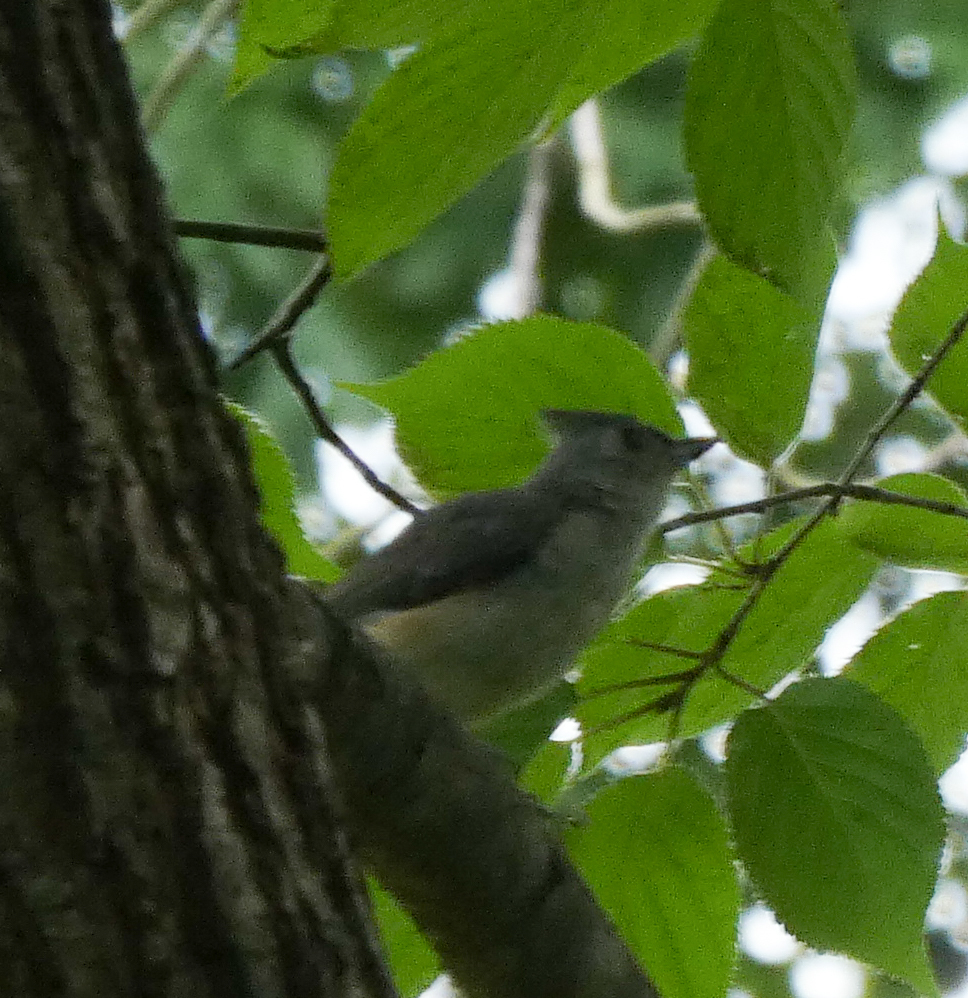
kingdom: Animalia
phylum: Chordata
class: Aves
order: Passeriformes
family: Paridae
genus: Baeolophus
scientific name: Baeolophus bicolor
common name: Tufted titmouse
